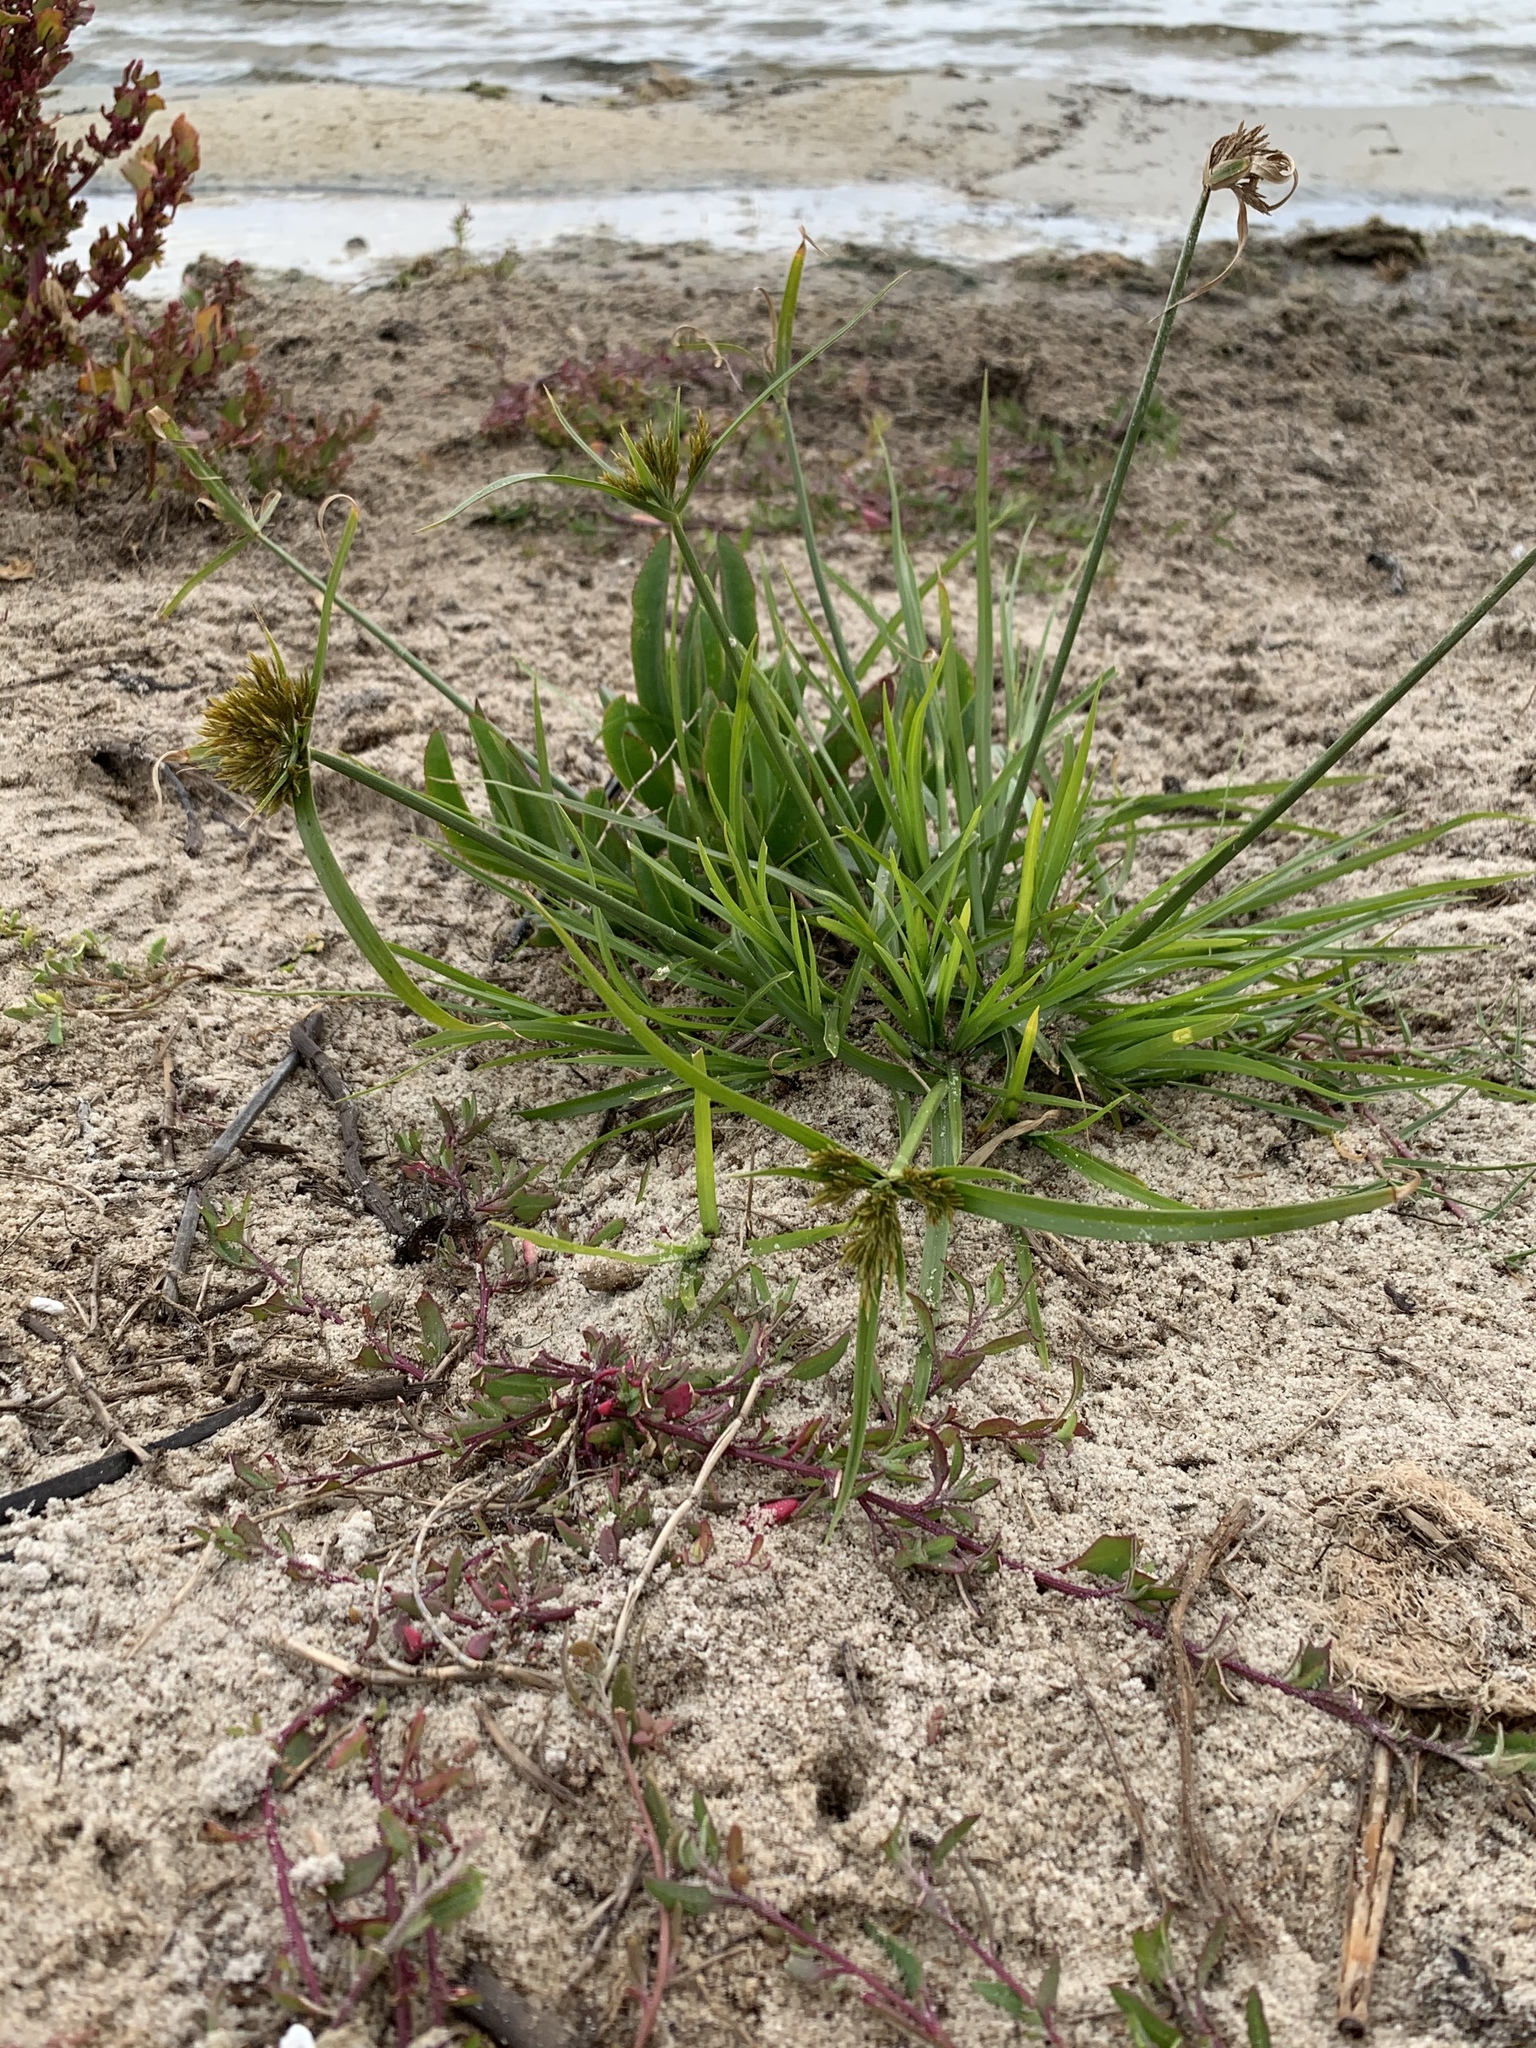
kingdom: Plantae
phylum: Tracheophyta
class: Liliopsida
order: Poales
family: Cyperaceae
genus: Cyperus
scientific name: Cyperus polystachyos
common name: Bunchy flat sedge
